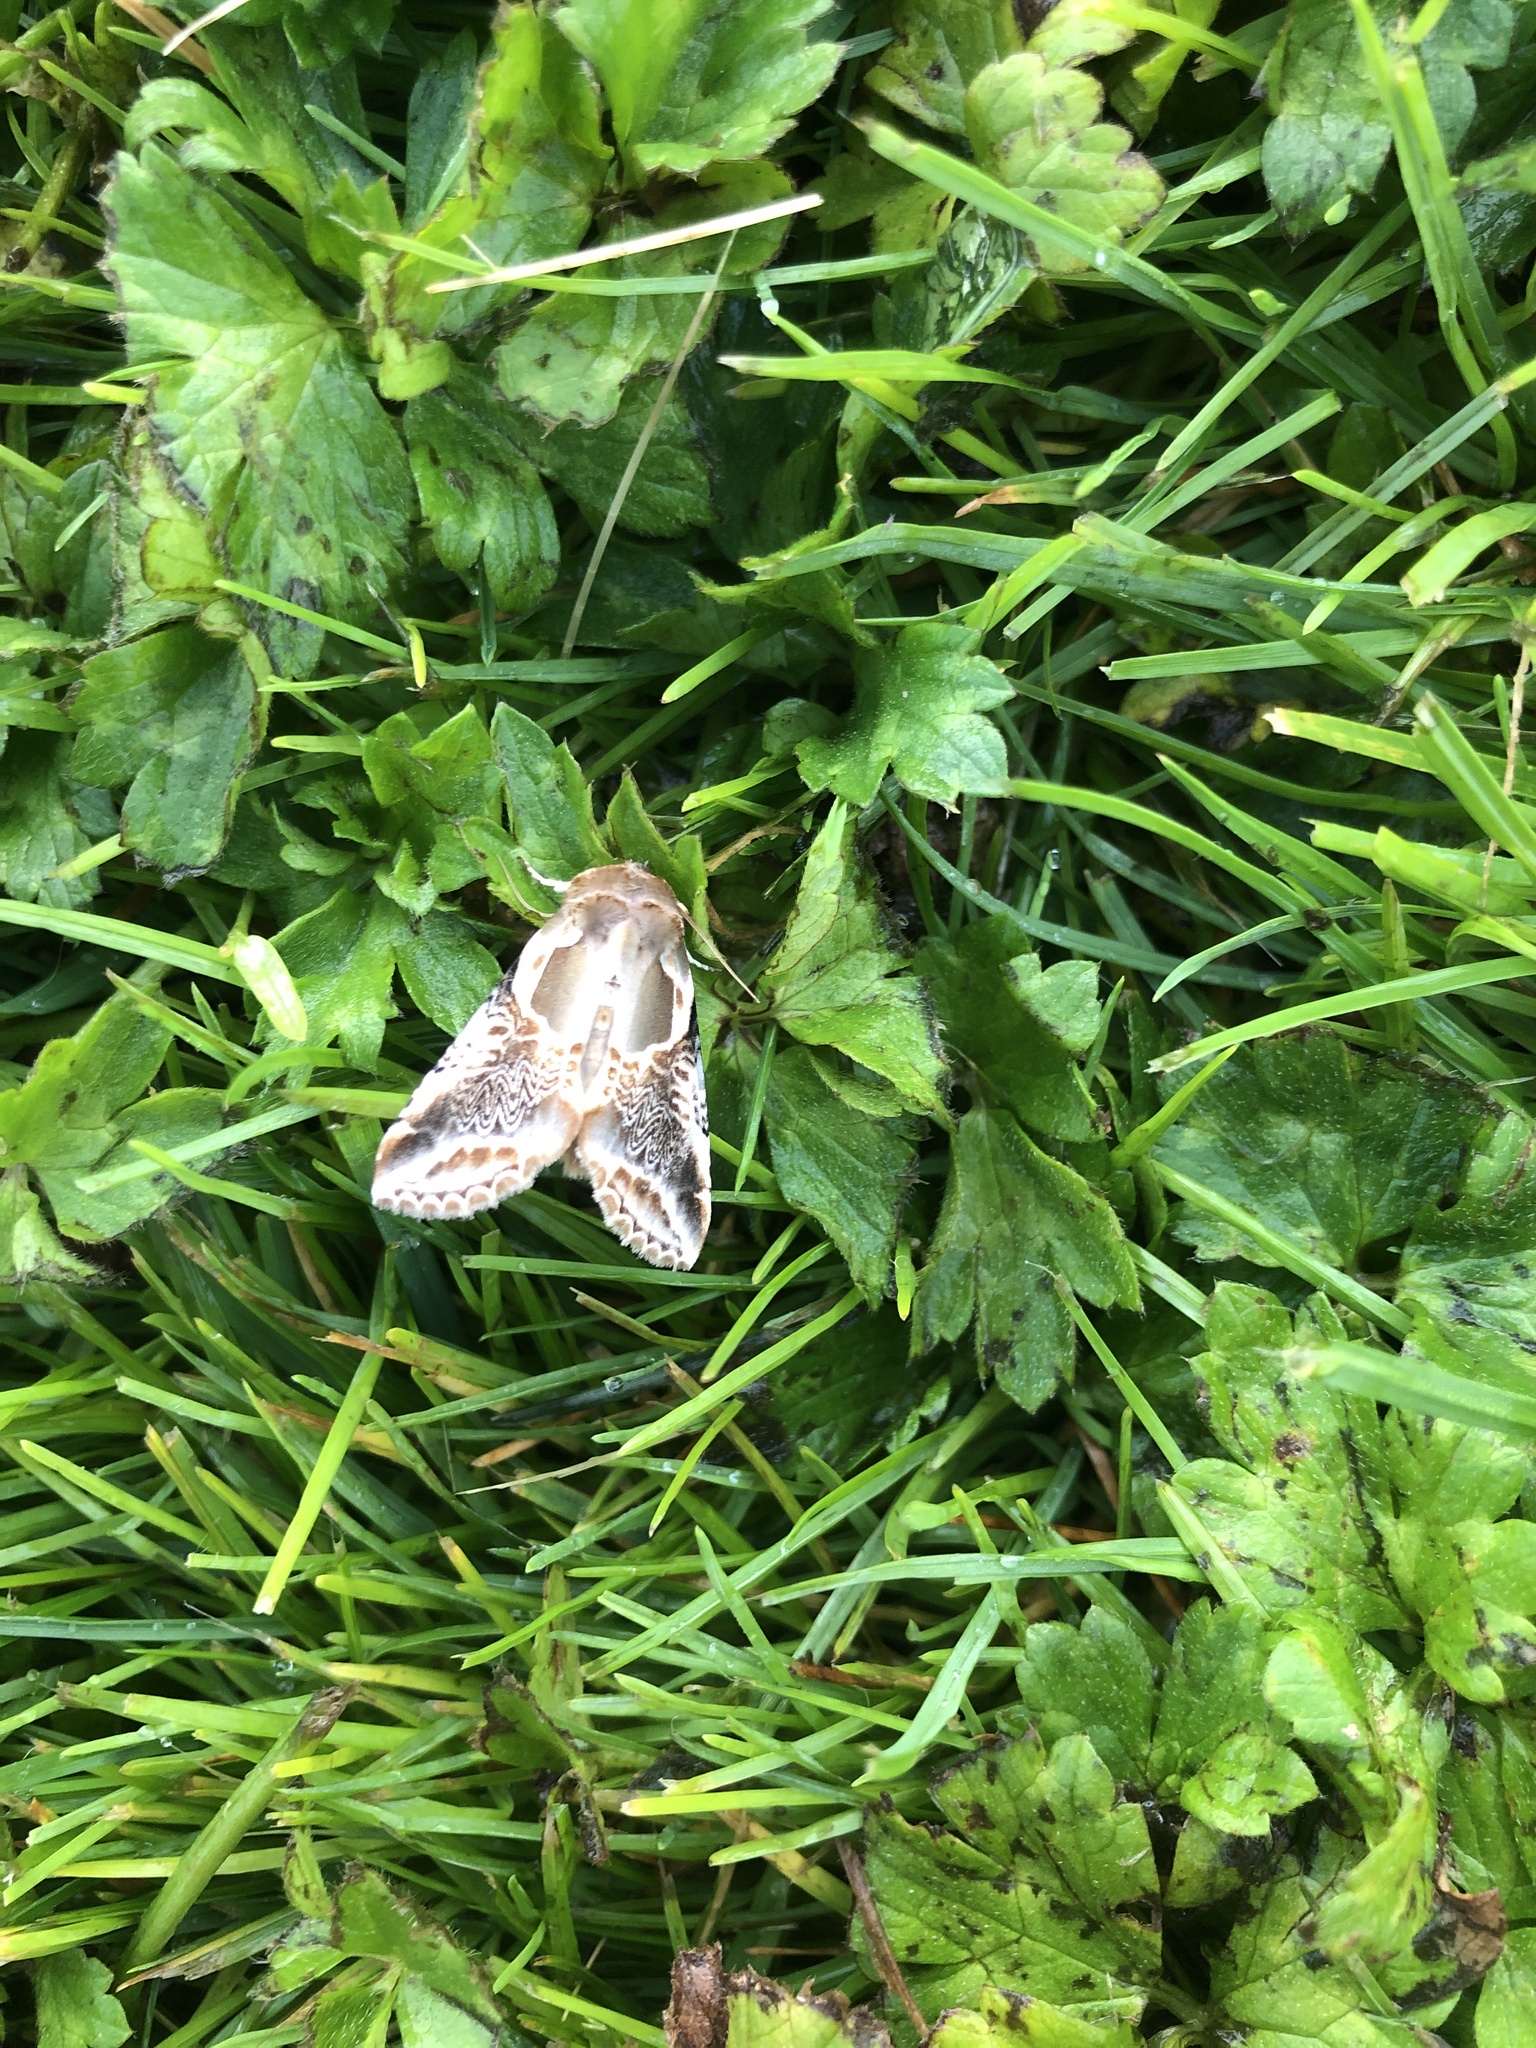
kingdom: Animalia
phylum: Arthropoda
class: Insecta
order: Lepidoptera
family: Drepanidae
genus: Habrosyne
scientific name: Habrosyne scripta
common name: Lettered habrosyne moth
